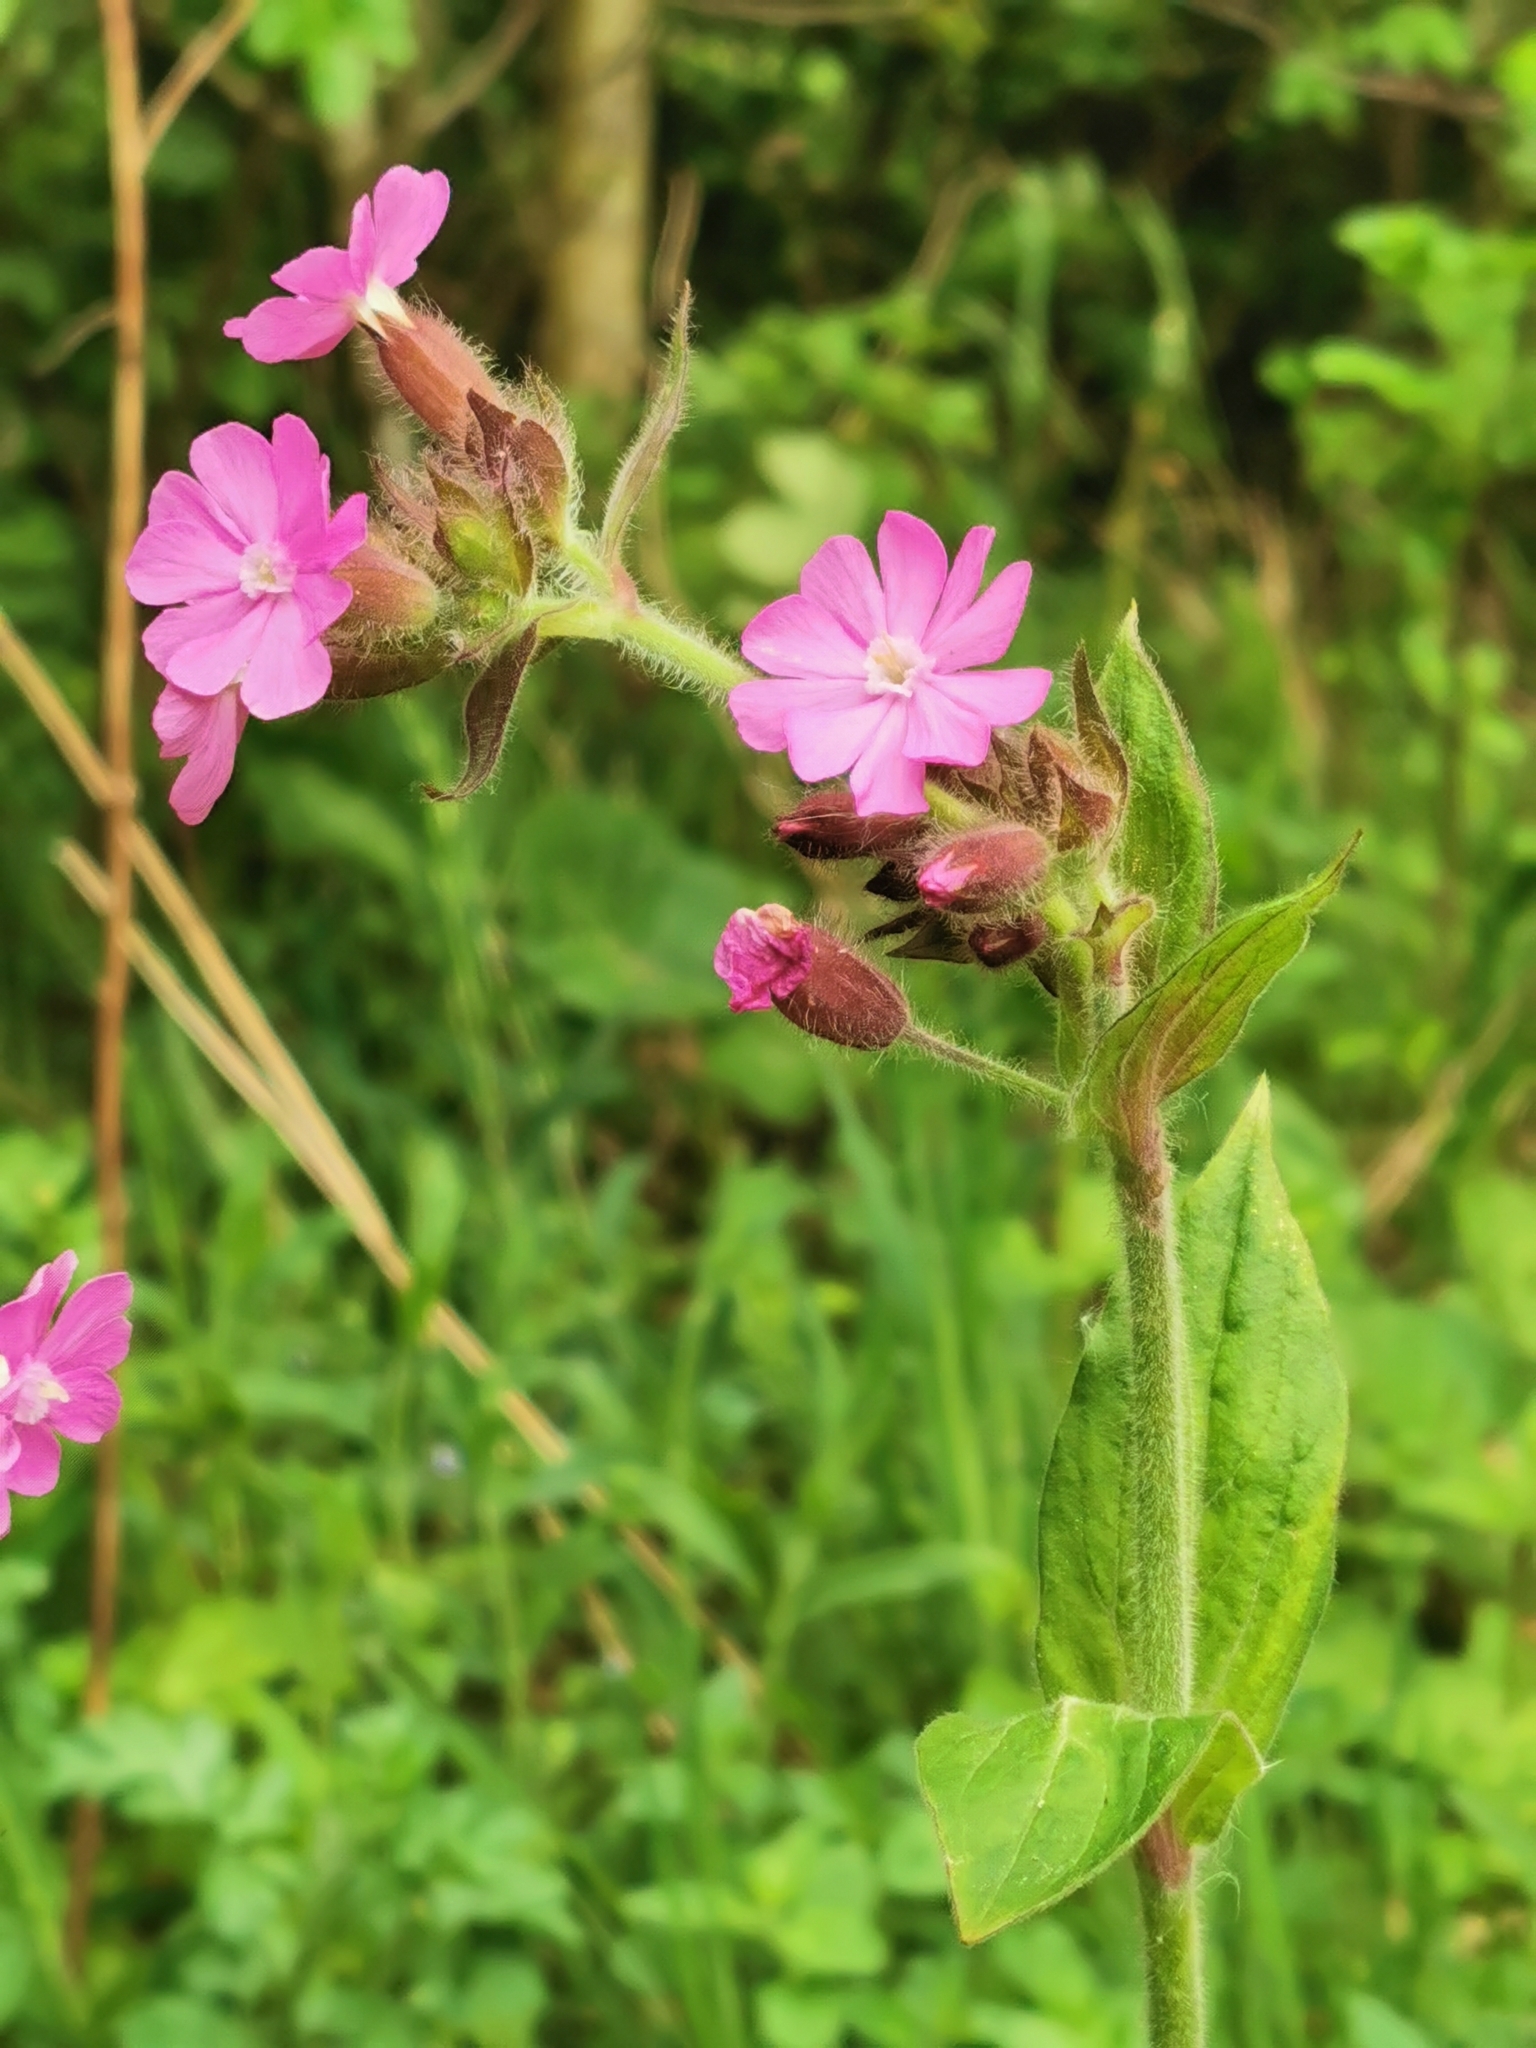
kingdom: Plantae
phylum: Tracheophyta
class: Magnoliopsida
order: Caryophyllales
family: Caryophyllaceae
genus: Silene
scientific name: Silene dioica
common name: Red campion
